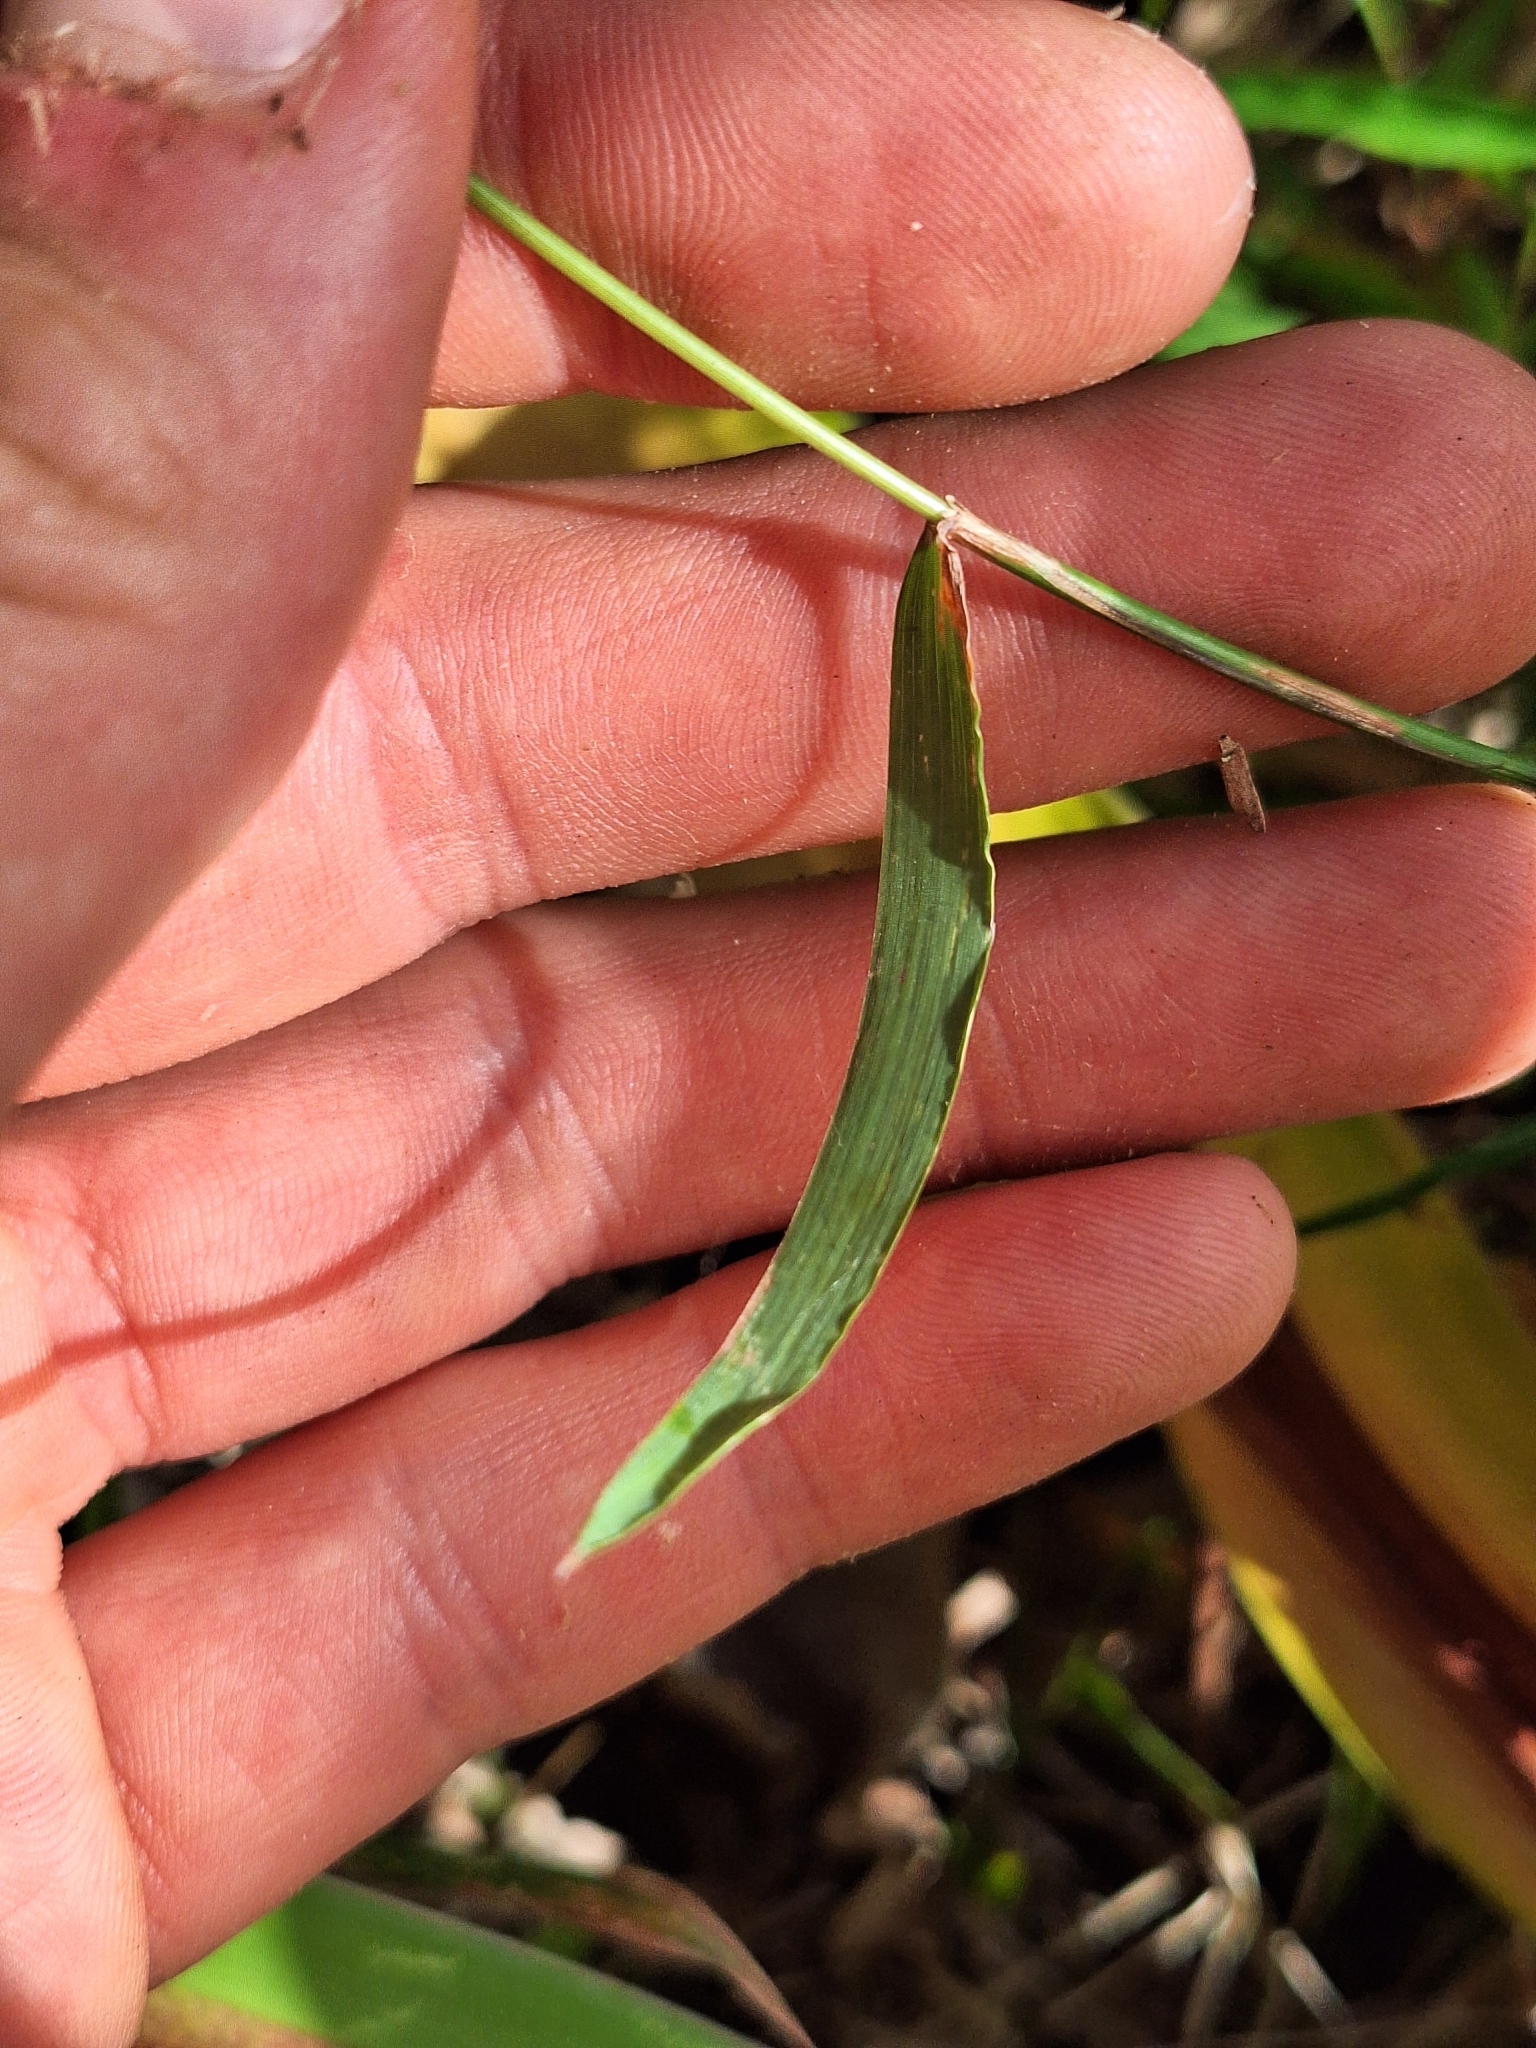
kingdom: Plantae
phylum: Tracheophyta
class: Liliopsida
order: Poales
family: Poaceae
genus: Echinopogon
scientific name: Echinopogon ovatus
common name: Hedgehog-grass
